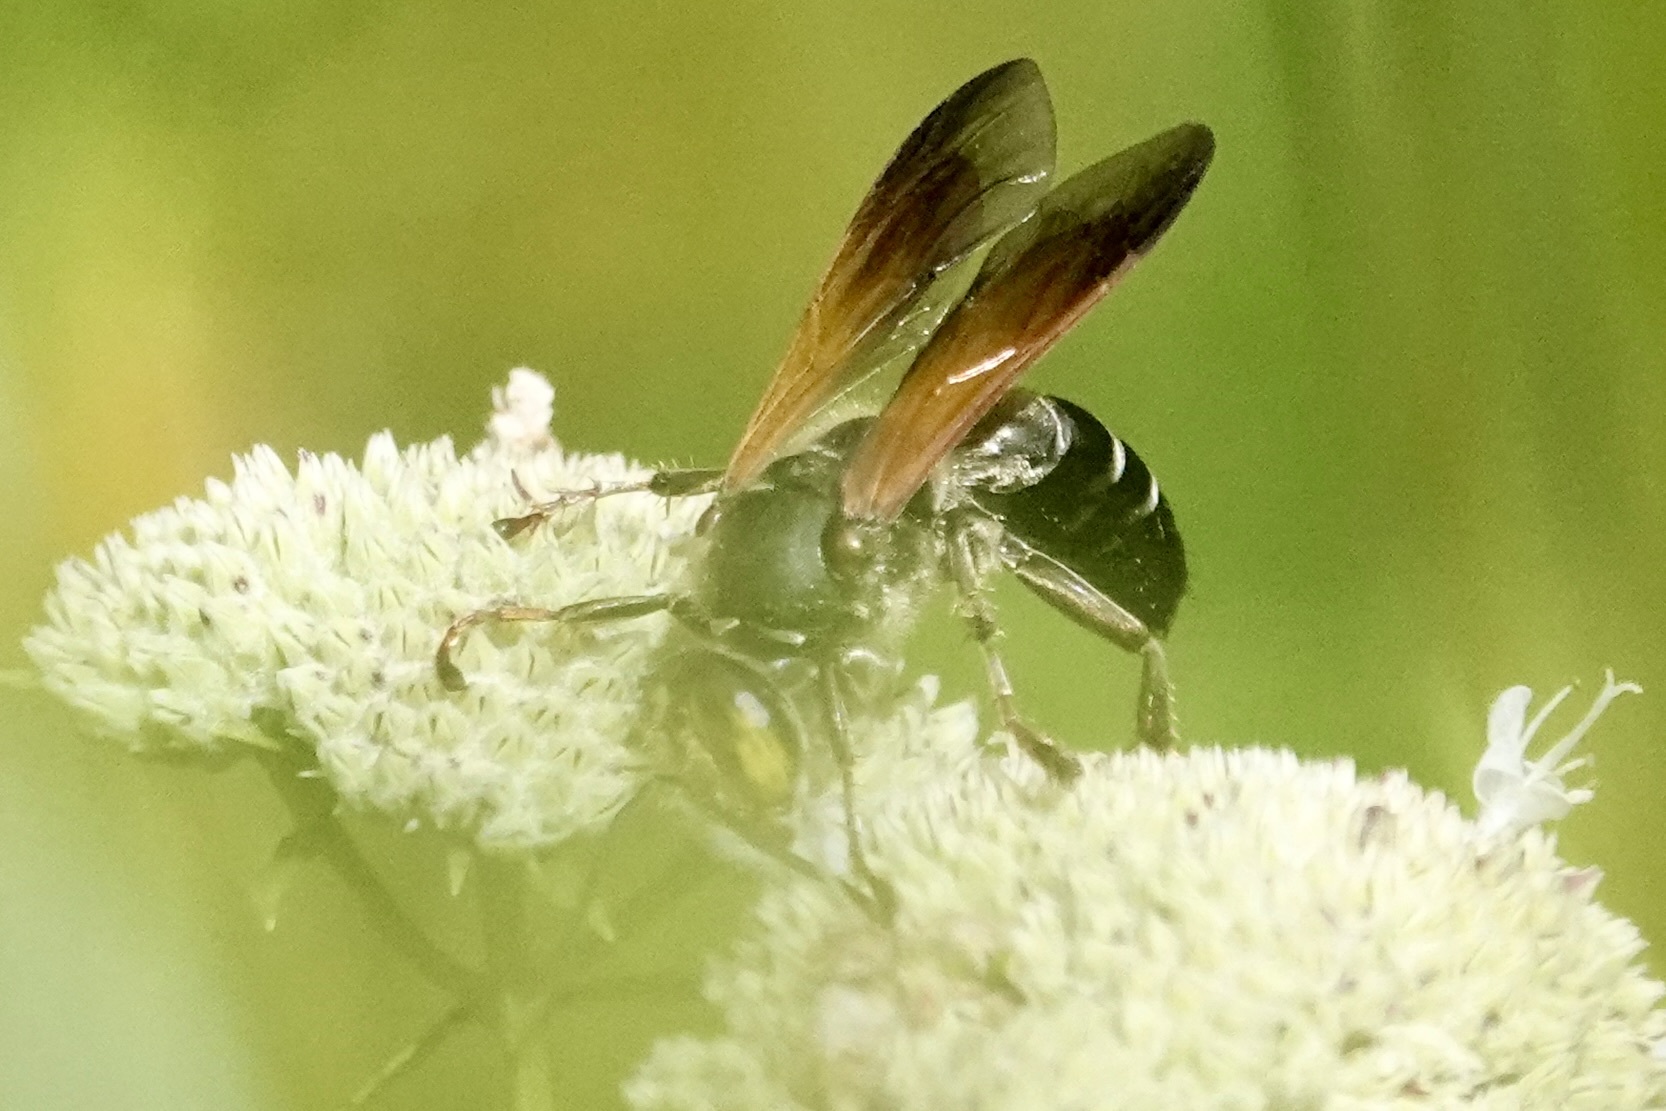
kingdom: Animalia
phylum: Arthropoda
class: Insecta
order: Hymenoptera
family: Crabronidae
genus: Tachytes
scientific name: Tachytes guatemalensis
